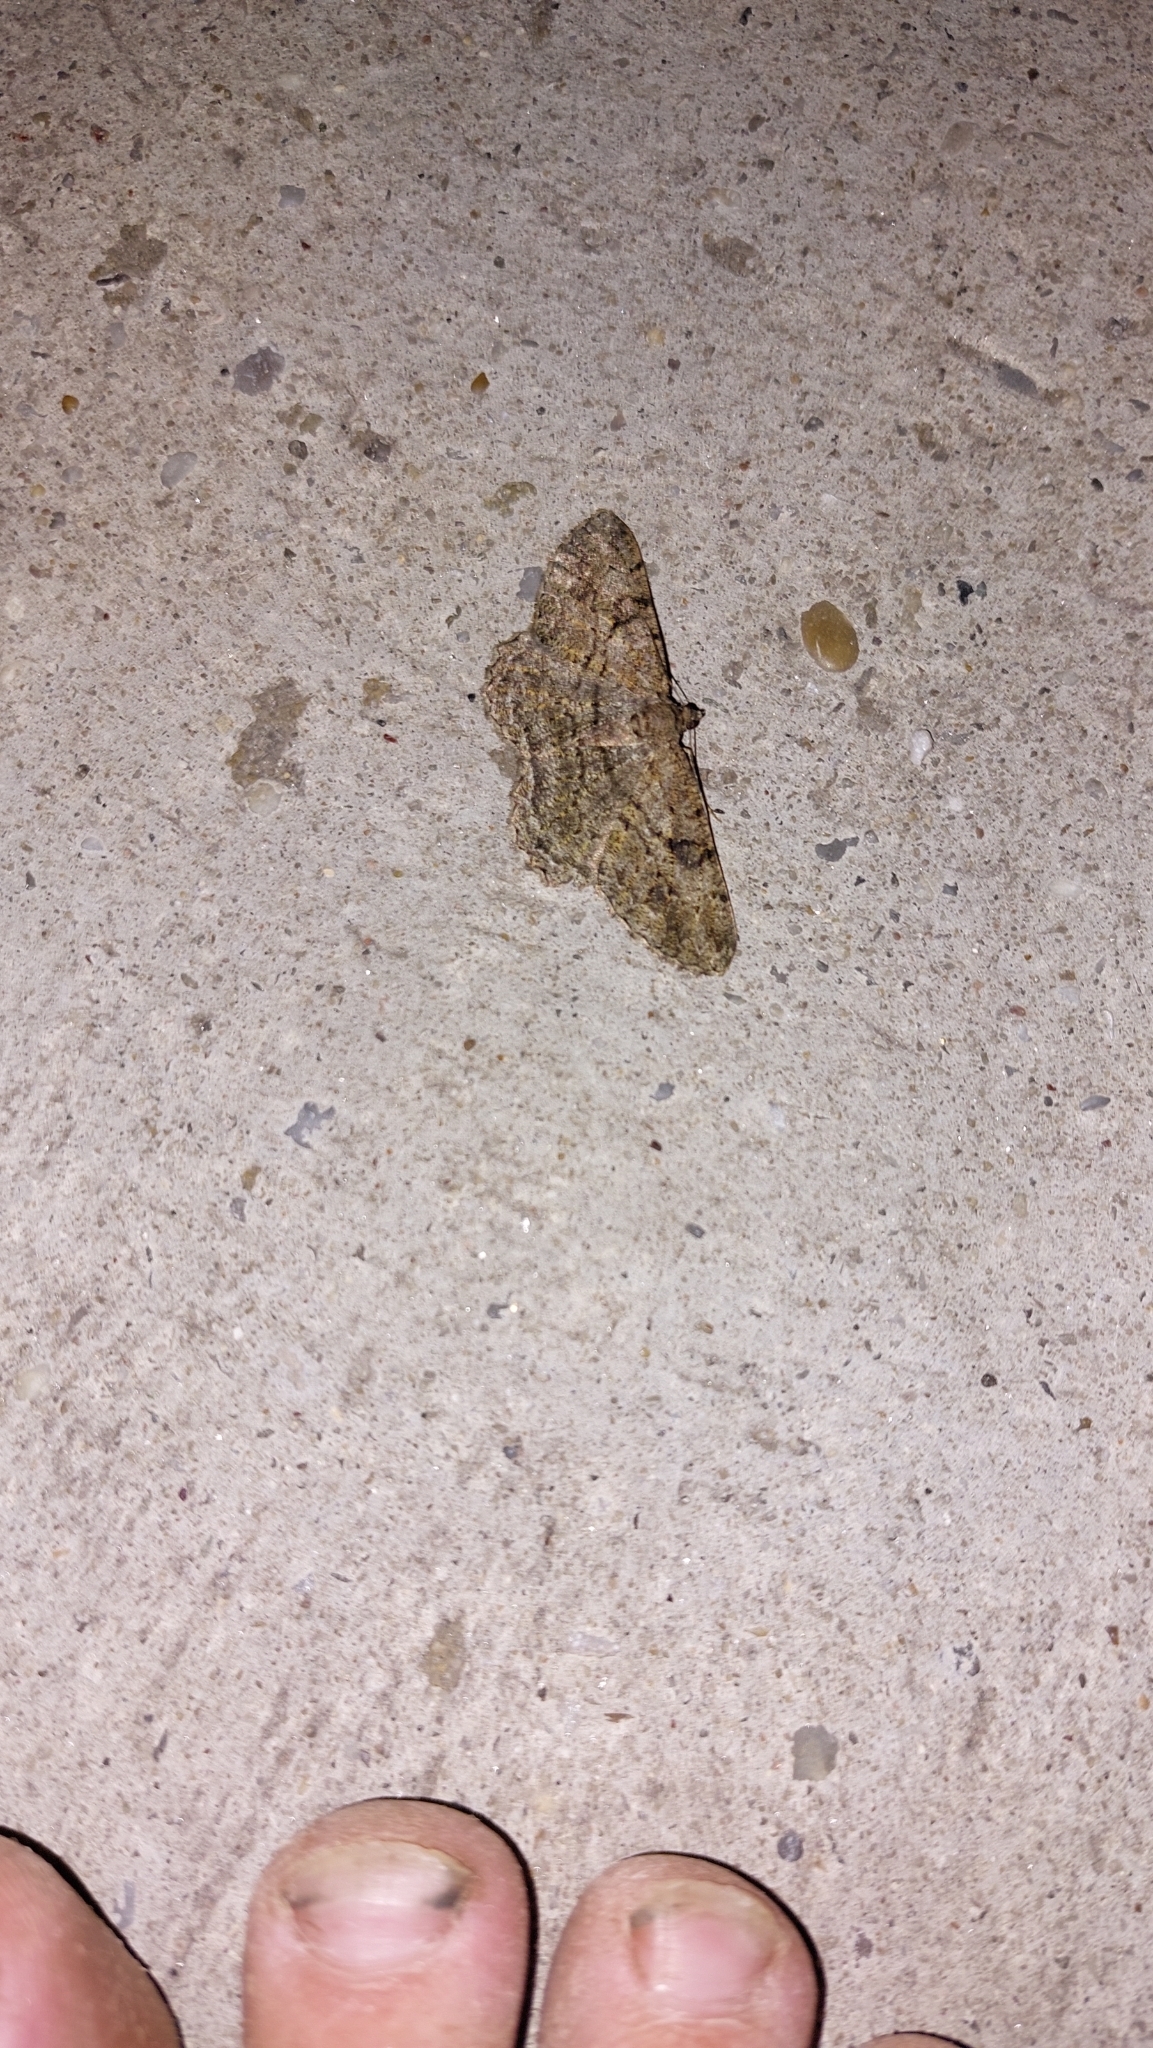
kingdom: Animalia
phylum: Arthropoda
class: Insecta
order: Lepidoptera
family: Geometridae
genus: Peribatodes
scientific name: Peribatodes rhomboidaria
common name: Willow beauty
